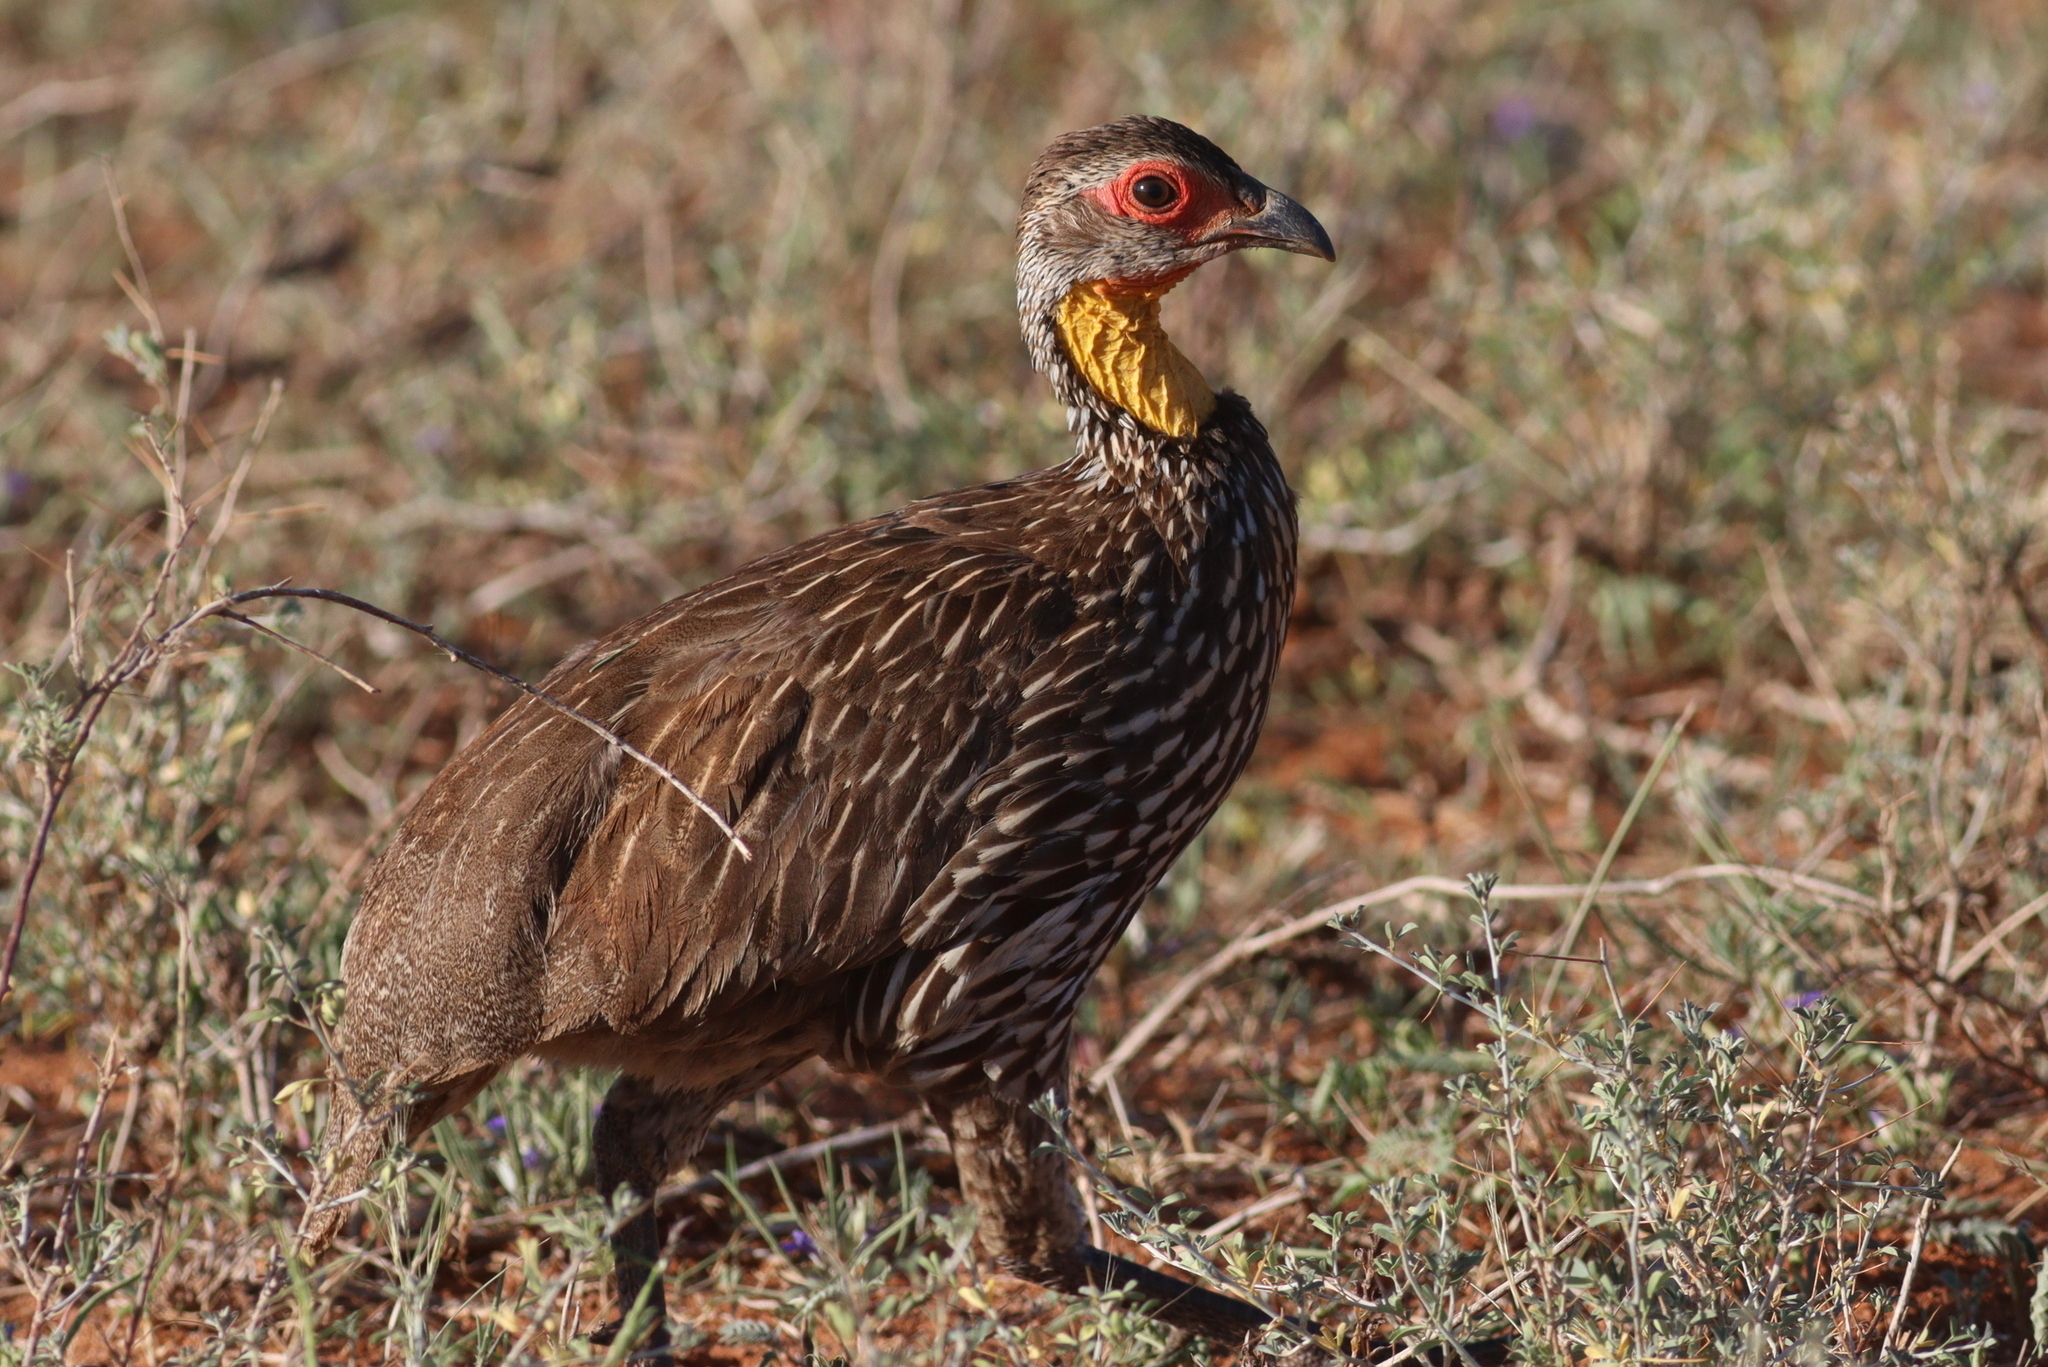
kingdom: Animalia
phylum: Chordata
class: Aves
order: Galliformes
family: Phasianidae
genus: Pternistis
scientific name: Pternistis leucoscepus
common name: Yellow-necked spurfowl
